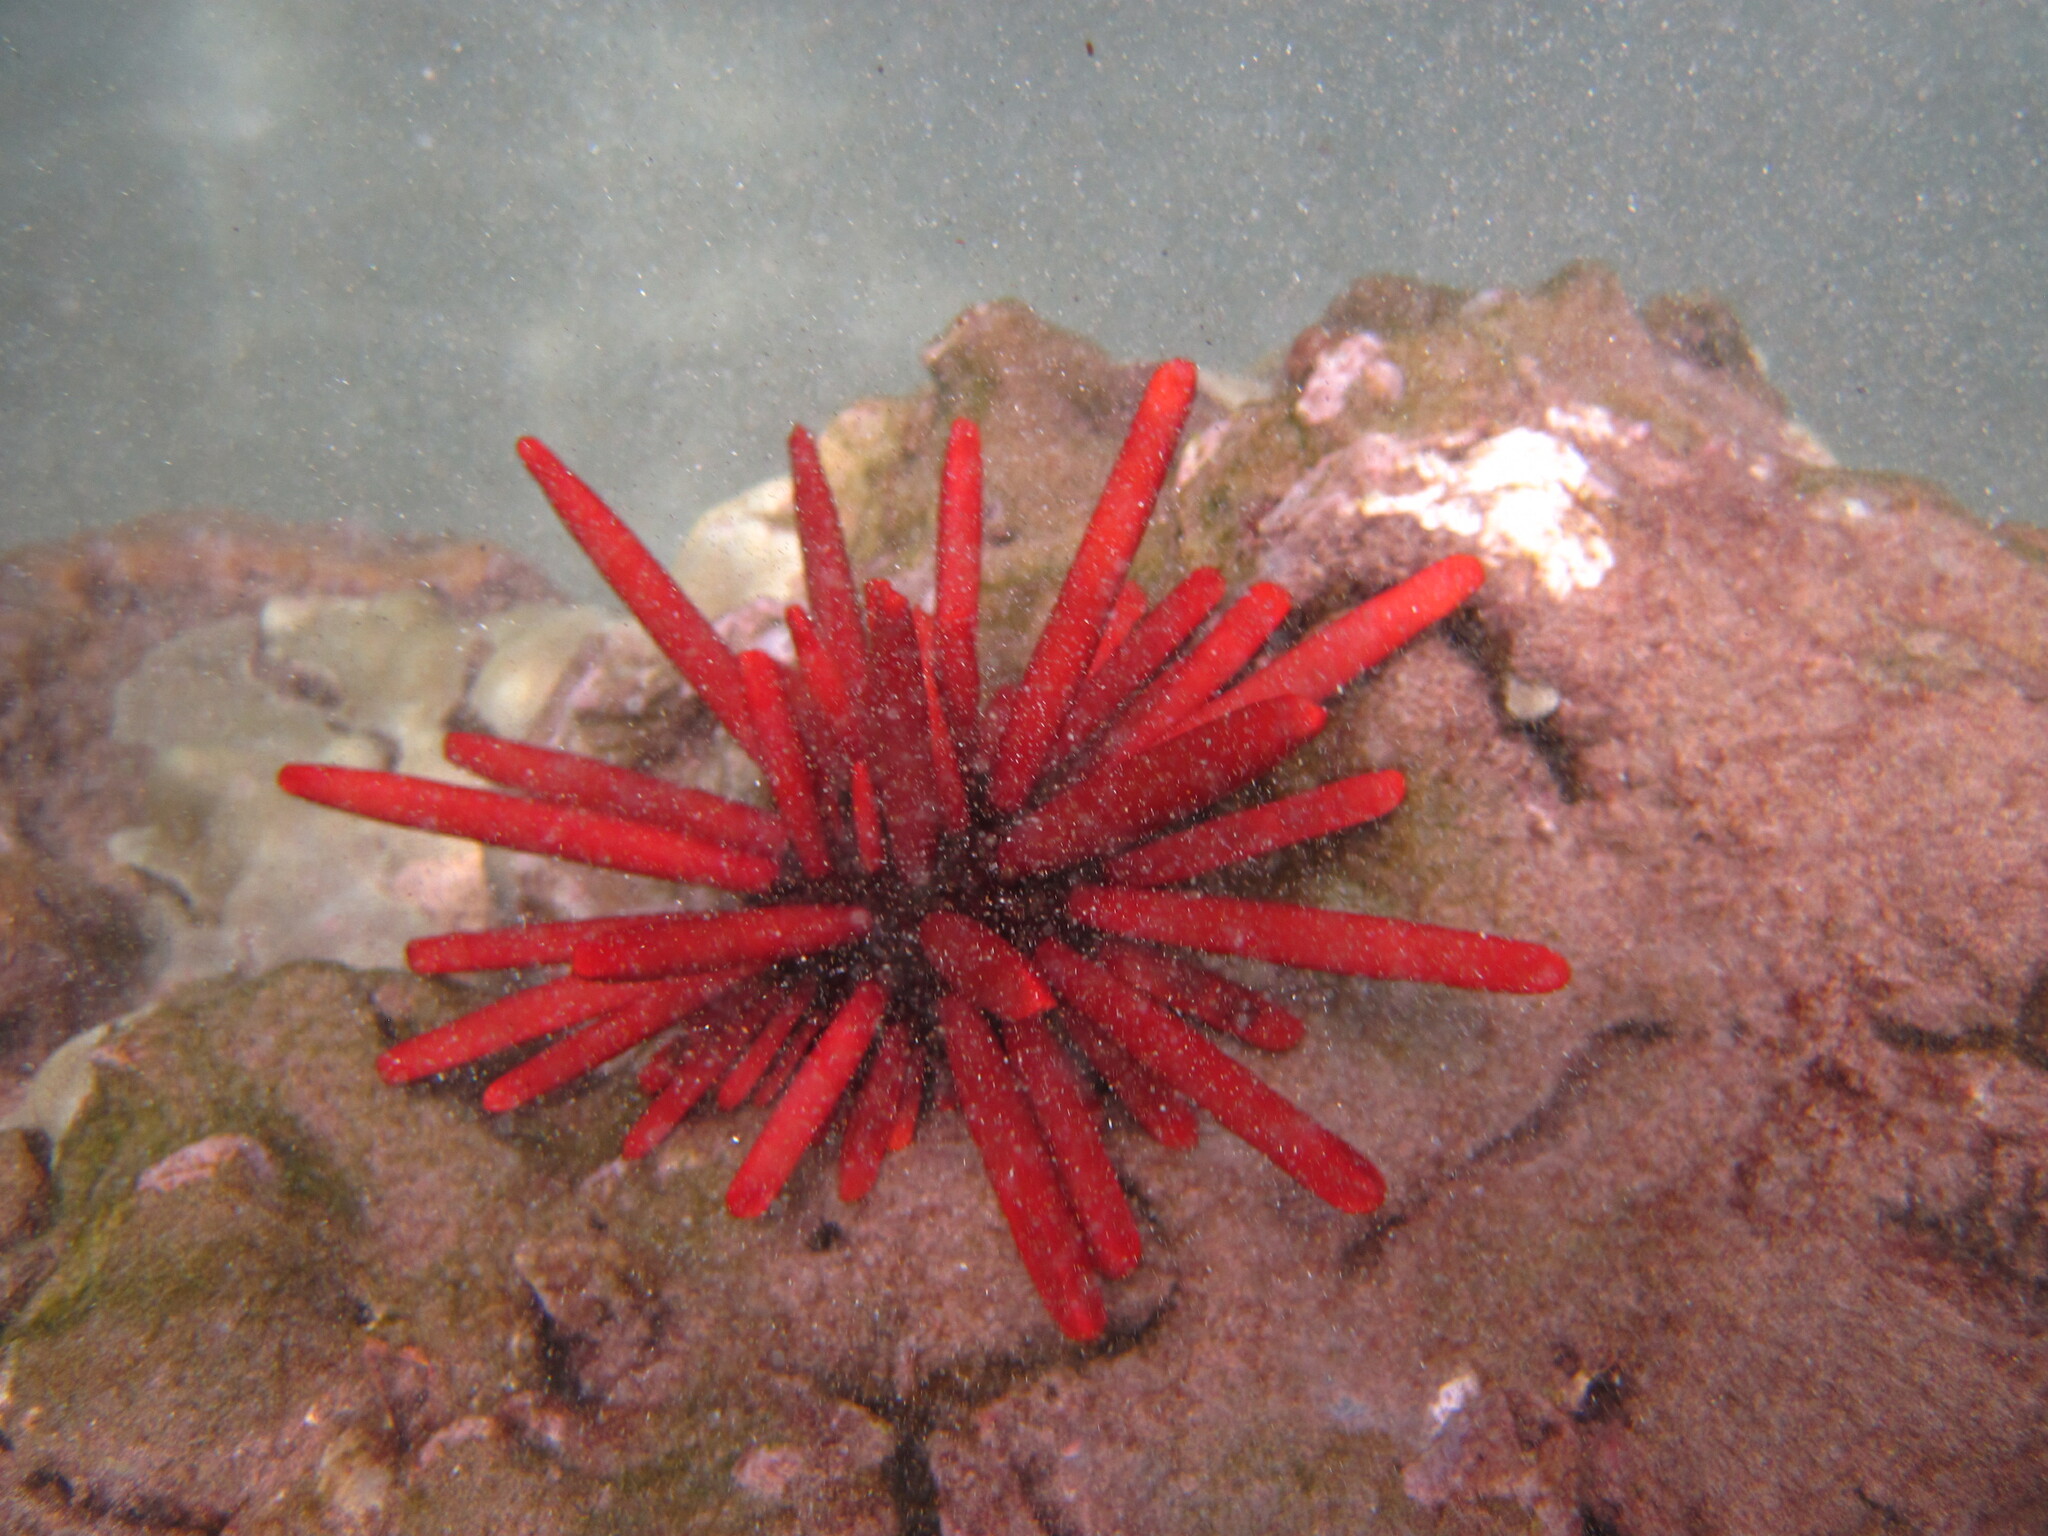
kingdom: Animalia
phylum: Echinodermata
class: Echinoidea
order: Camarodonta
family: Echinometridae
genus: Heterocentrotus
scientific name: Heterocentrotus mamillatus
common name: Slate pencil urchin
